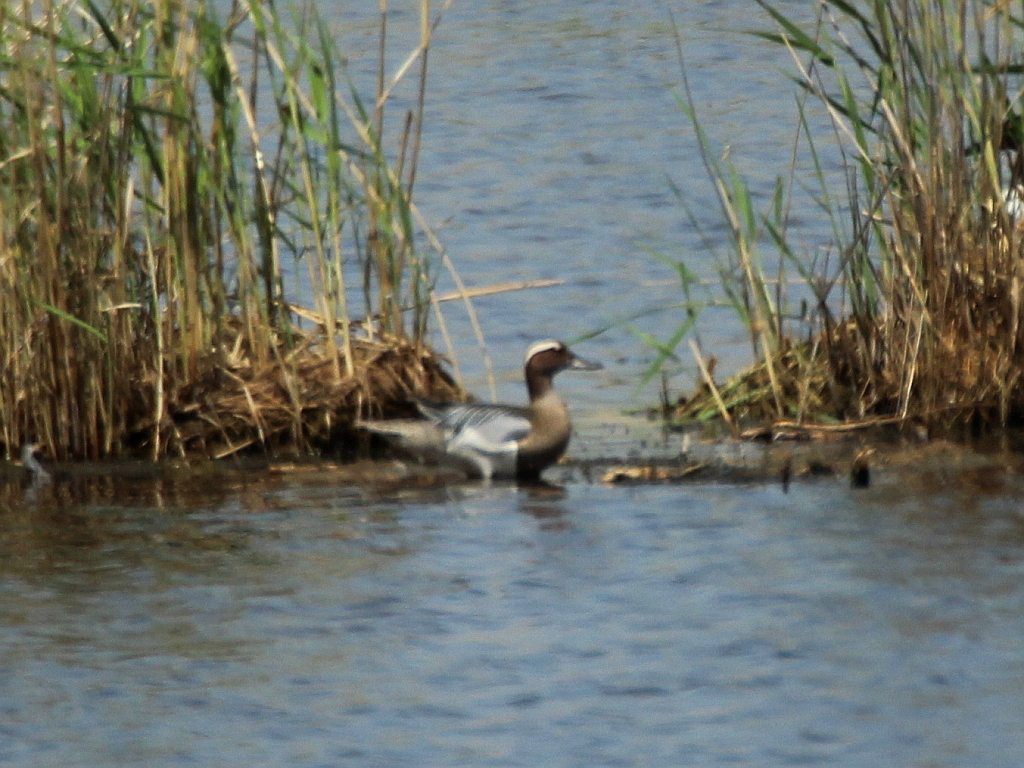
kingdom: Animalia
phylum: Chordata
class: Aves
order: Anseriformes
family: Anatidae
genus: Spatula
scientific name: Spatula querquedula
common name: Garganey
